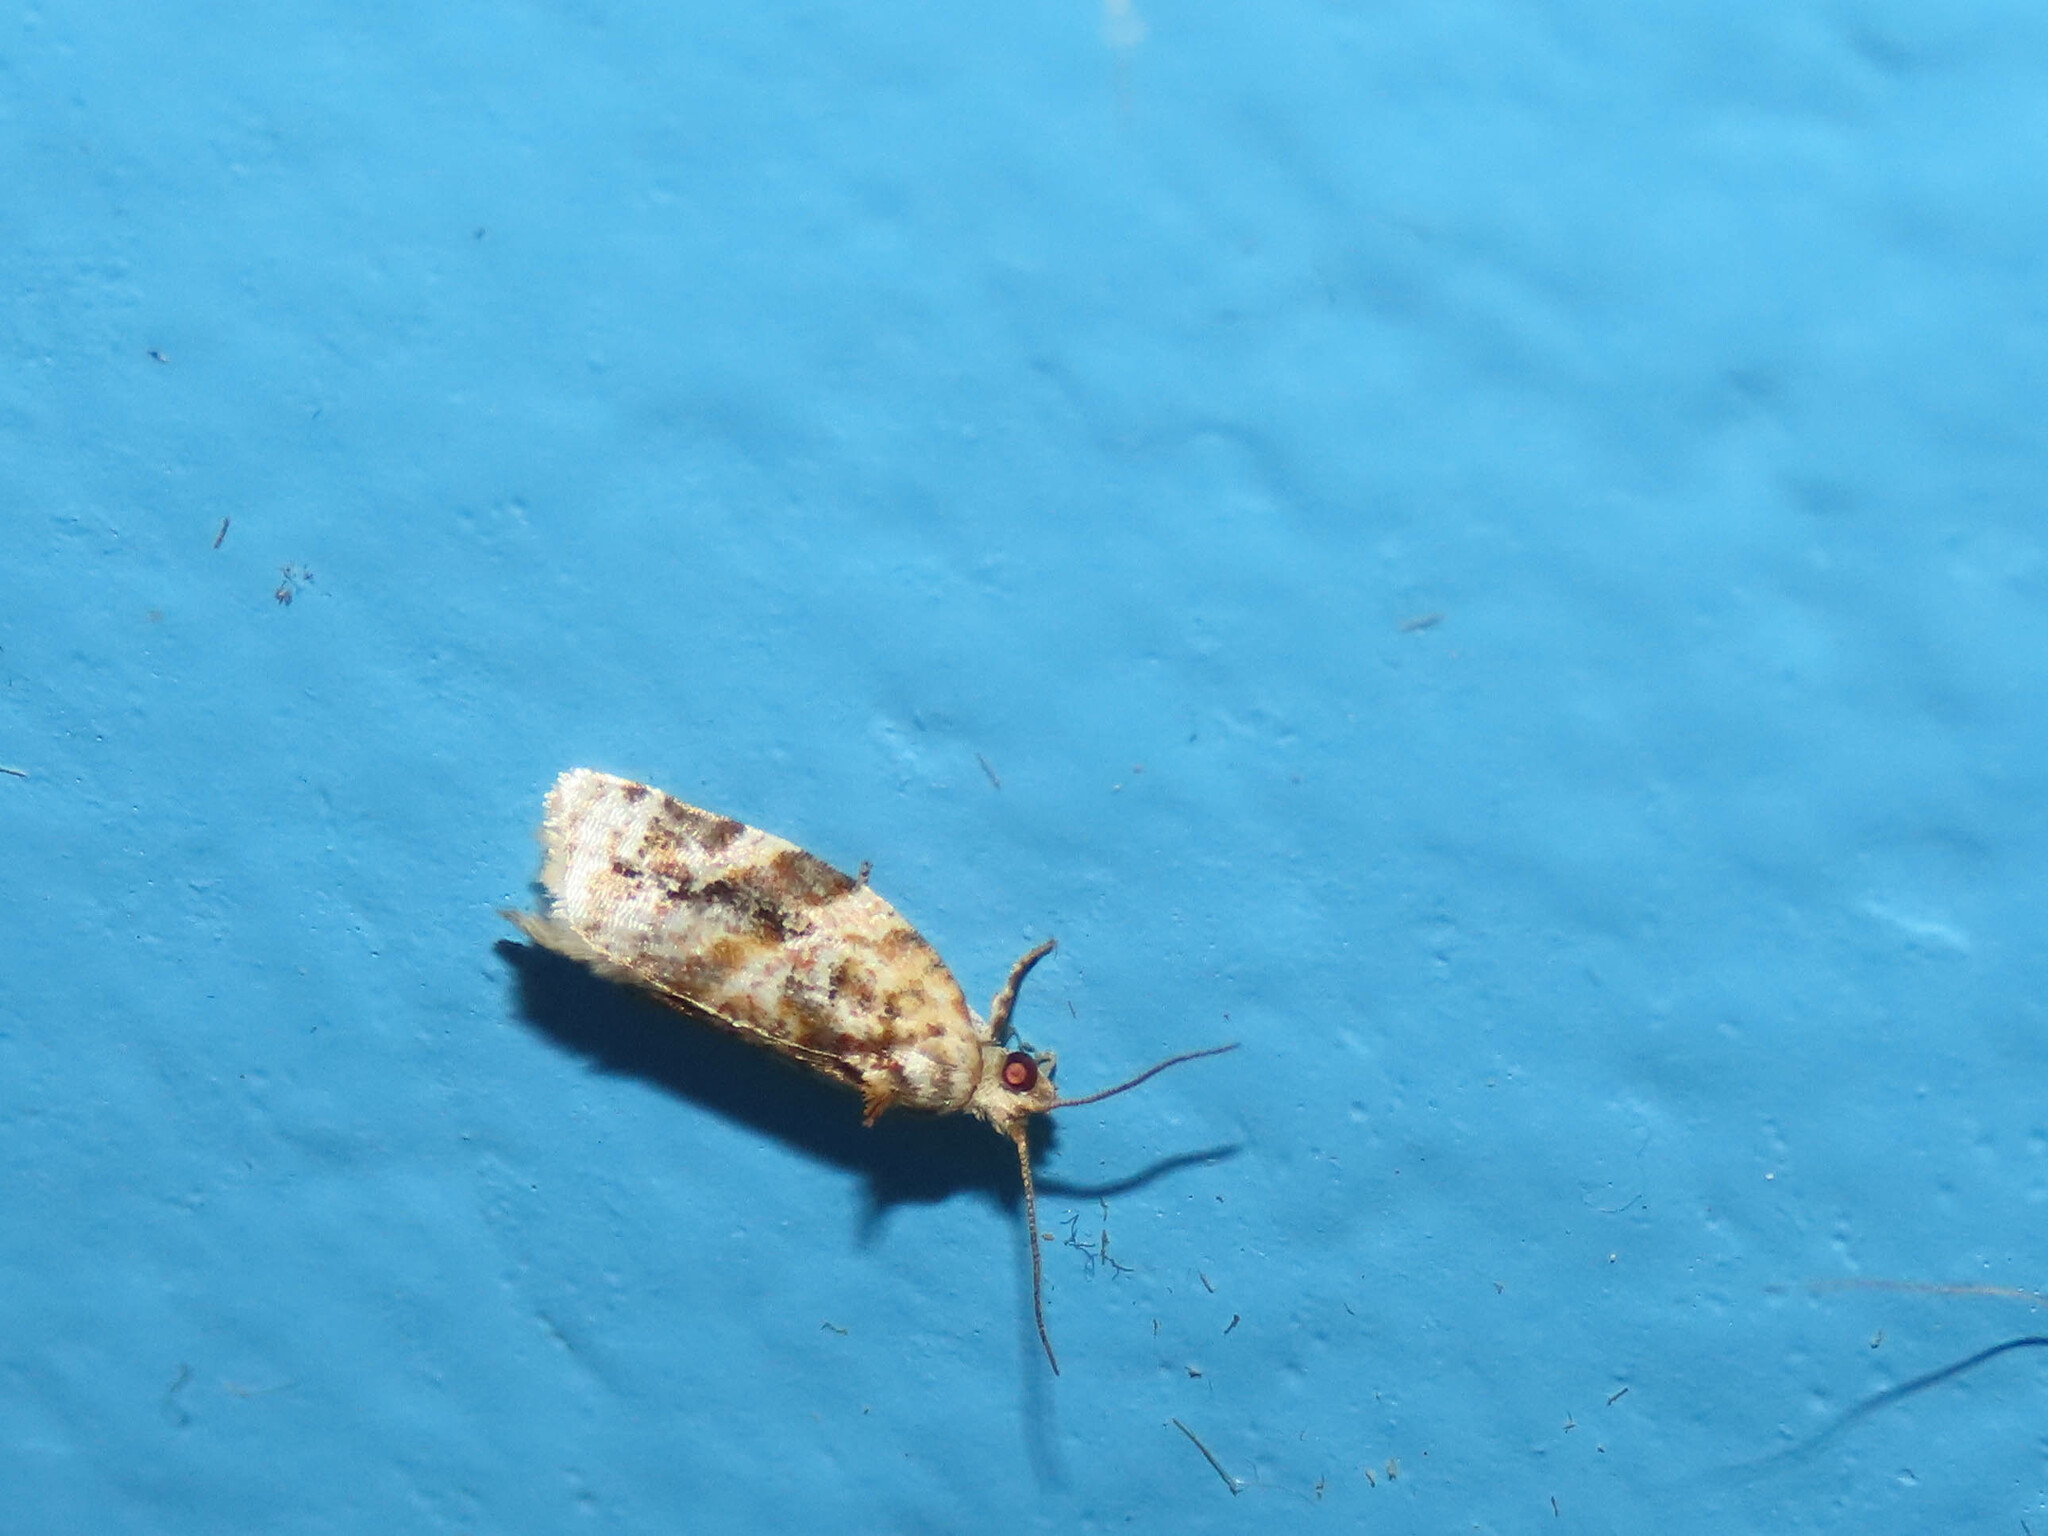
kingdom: Animalia
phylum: Arthropoda
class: Insecta
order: Lepidoptera
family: Tortricidae
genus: Argyrotaenia
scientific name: Argyrotaenia velutinana
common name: Red-banded leafroller moth
